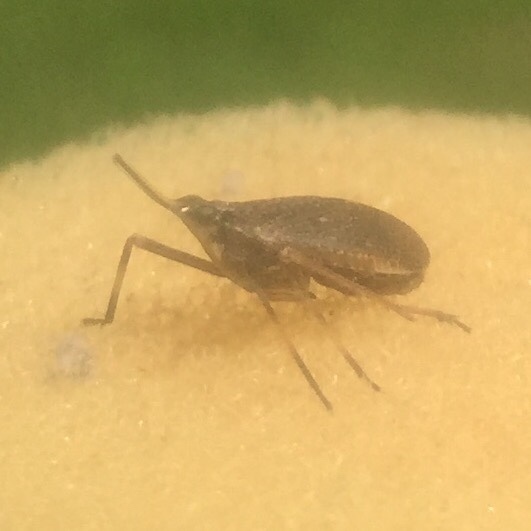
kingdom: Animalia
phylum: Arthropoda
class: Insecta
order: Hemiptera
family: Dictyopharidae
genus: Scolops
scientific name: Scolops sulcipes
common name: Partridge planthopper
